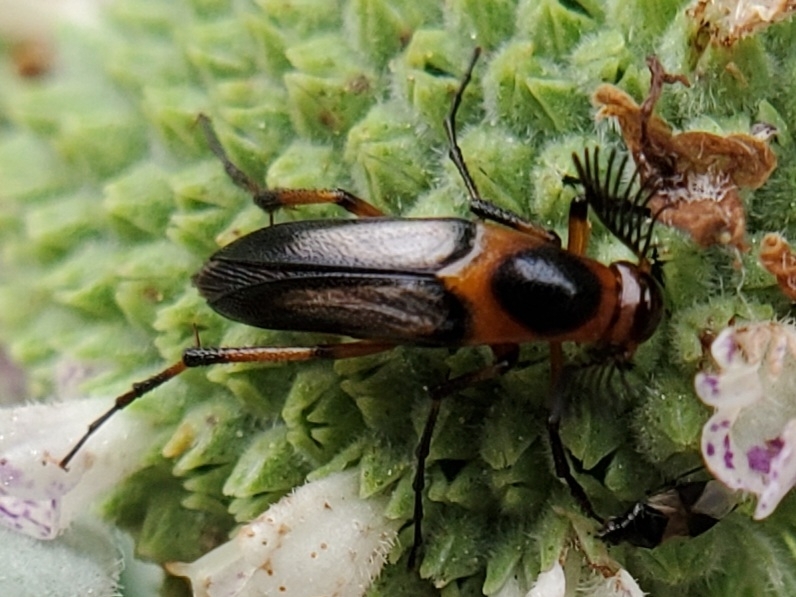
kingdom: Animalia
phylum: Arthropoda
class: Insecta
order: Coleoptera
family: Ripiphoridae
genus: Macrosiagon
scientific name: Macrosiagon limbatum
